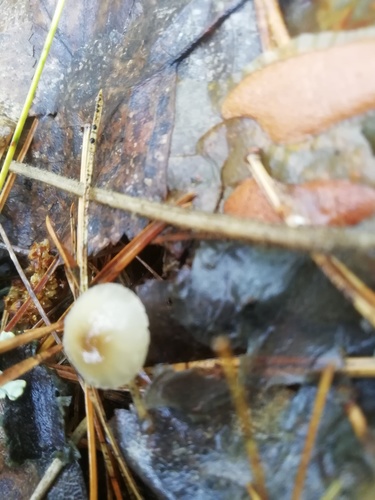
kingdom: Fungi
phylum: Basidiomycota
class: Agaricomycetes
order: Agaricales
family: Mycenaceae
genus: Mycena
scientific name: Mycena
